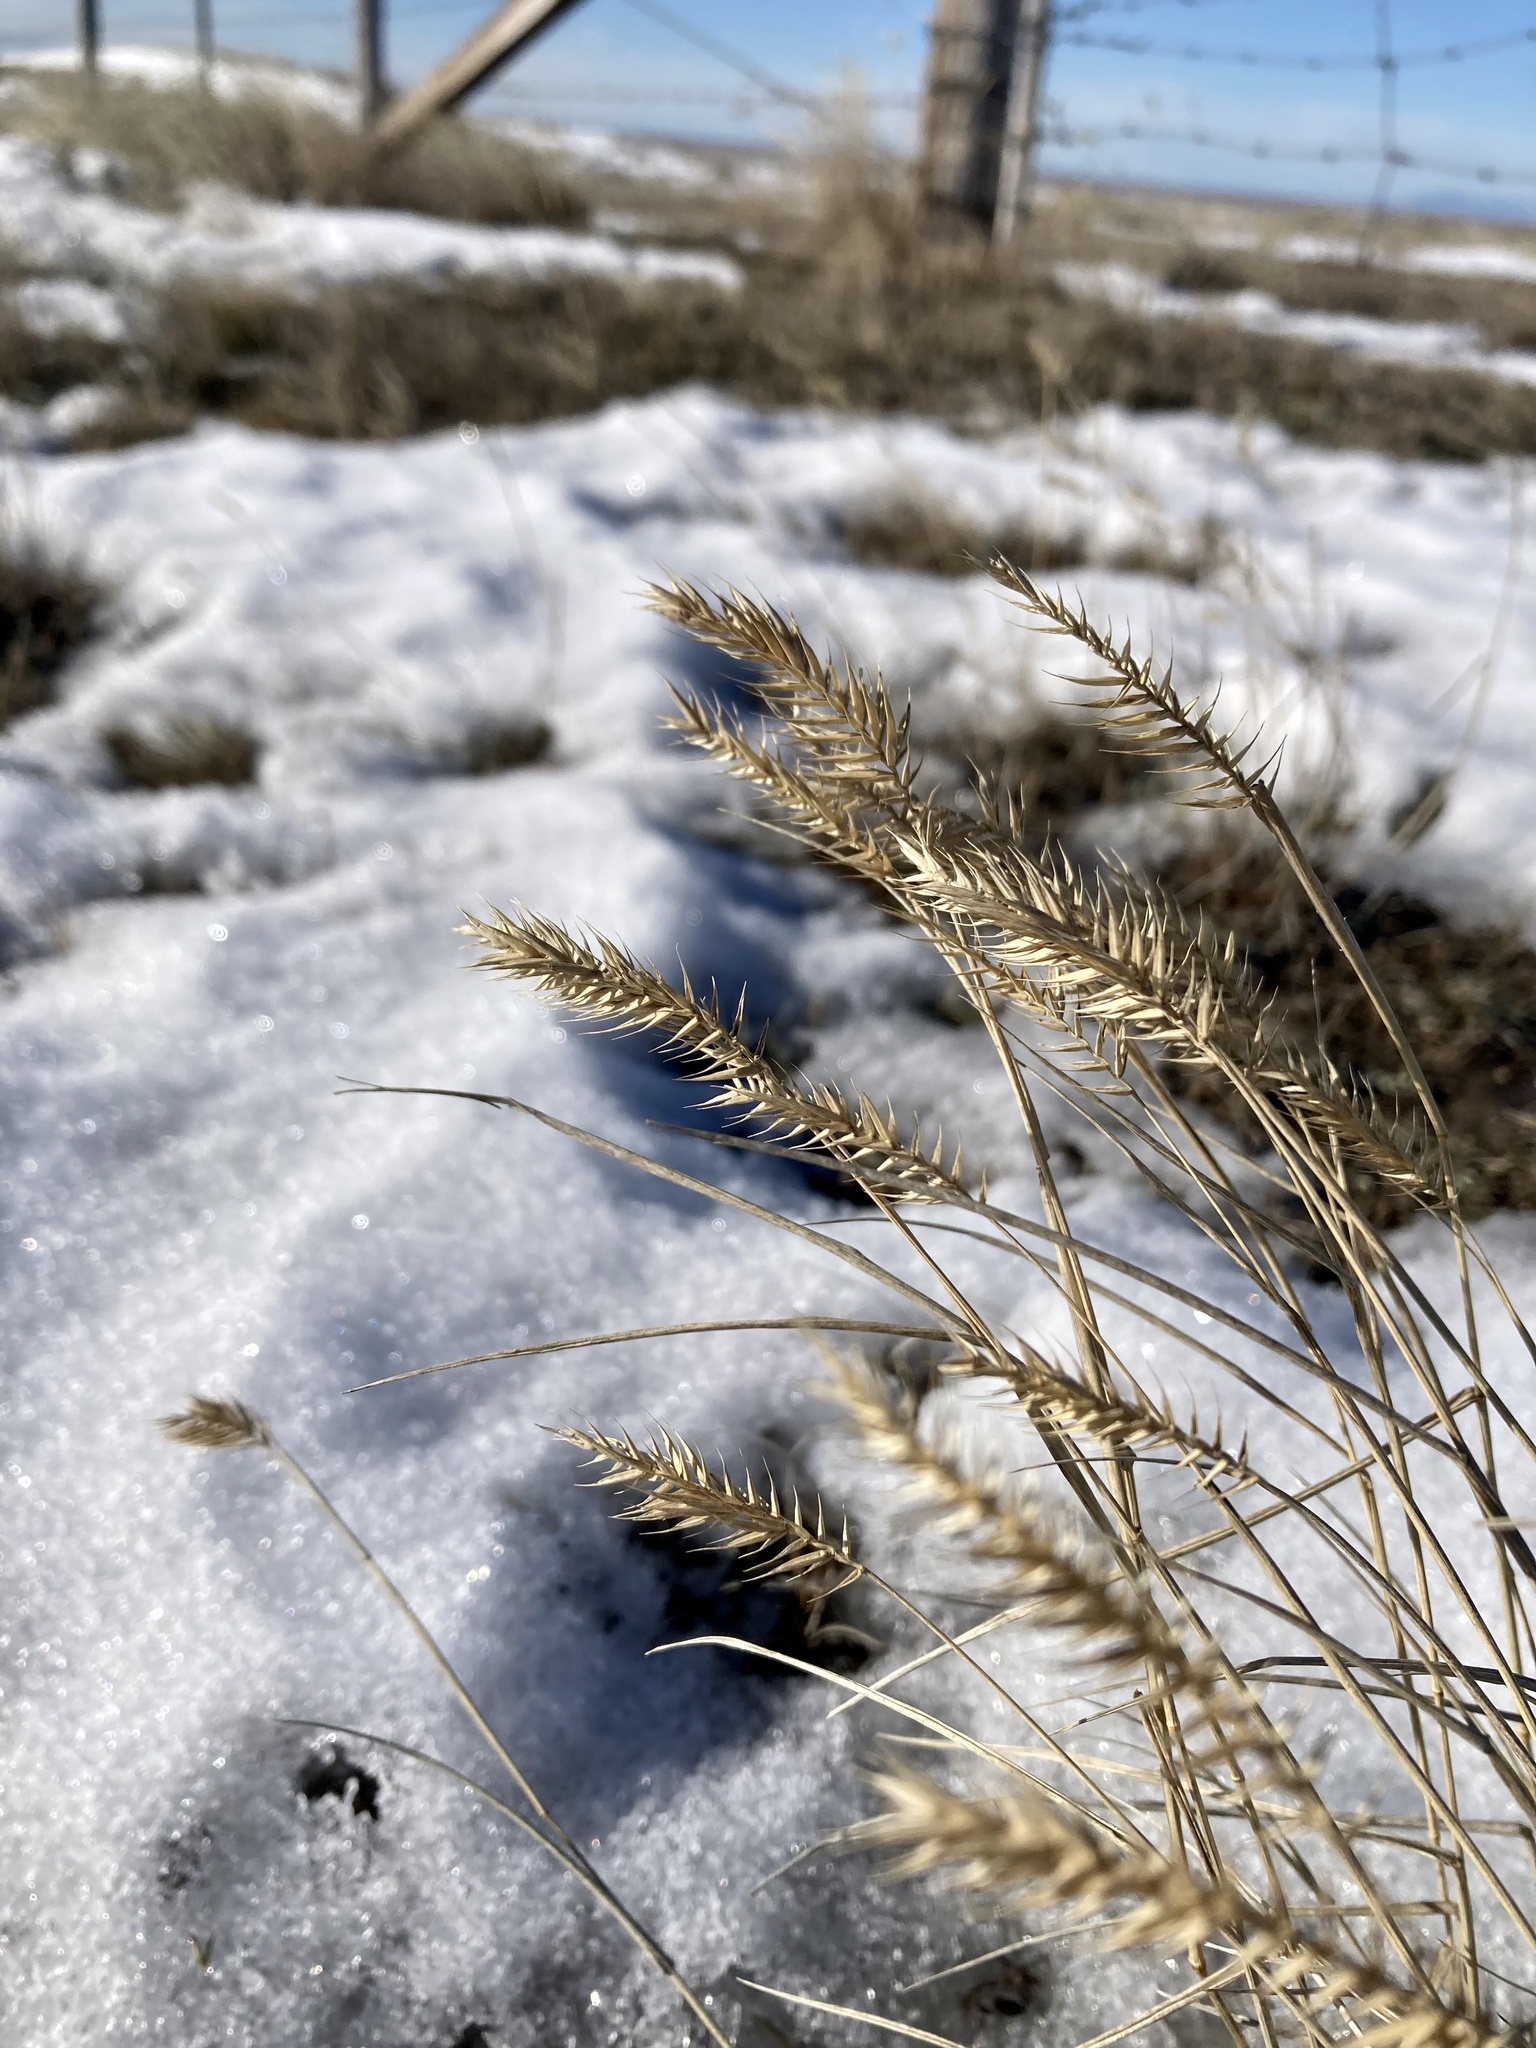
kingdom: Plantae
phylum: Tracheophyta
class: Liliopsida
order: Poales
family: Poaceae
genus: Agropyron
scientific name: Agropyron cristatum
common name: Crested wheatgrass
